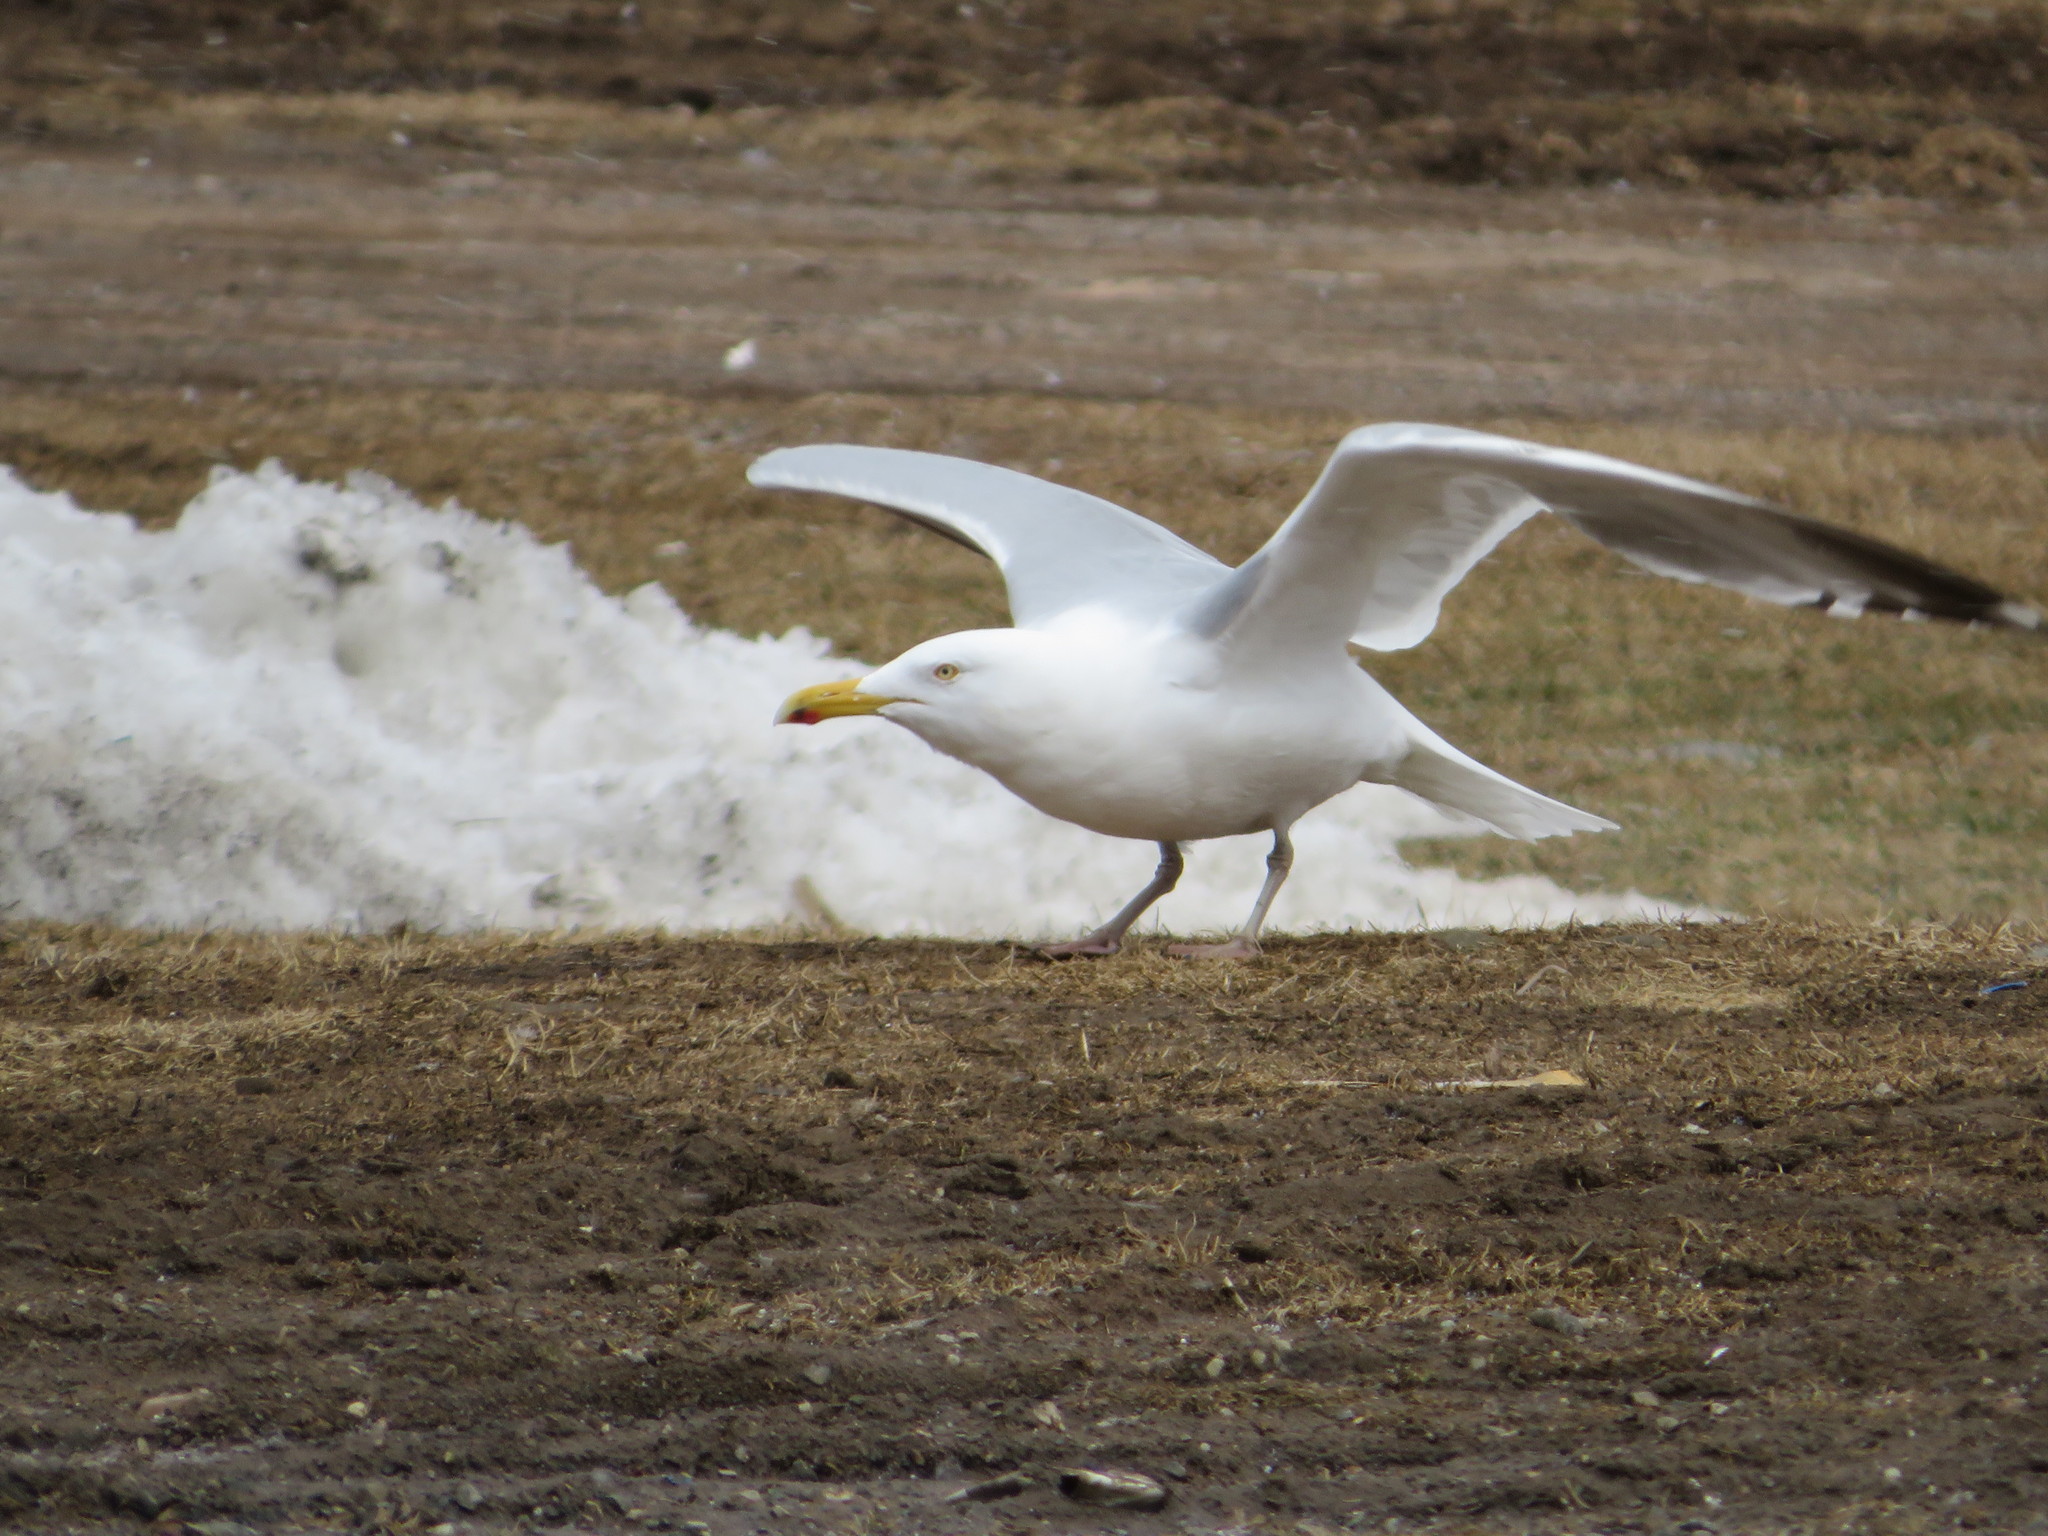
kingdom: Animalia
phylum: Chordata
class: Aves
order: Charadriiformes
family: Laridae
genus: Larus
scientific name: Larus argentatus
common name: Herring gull
